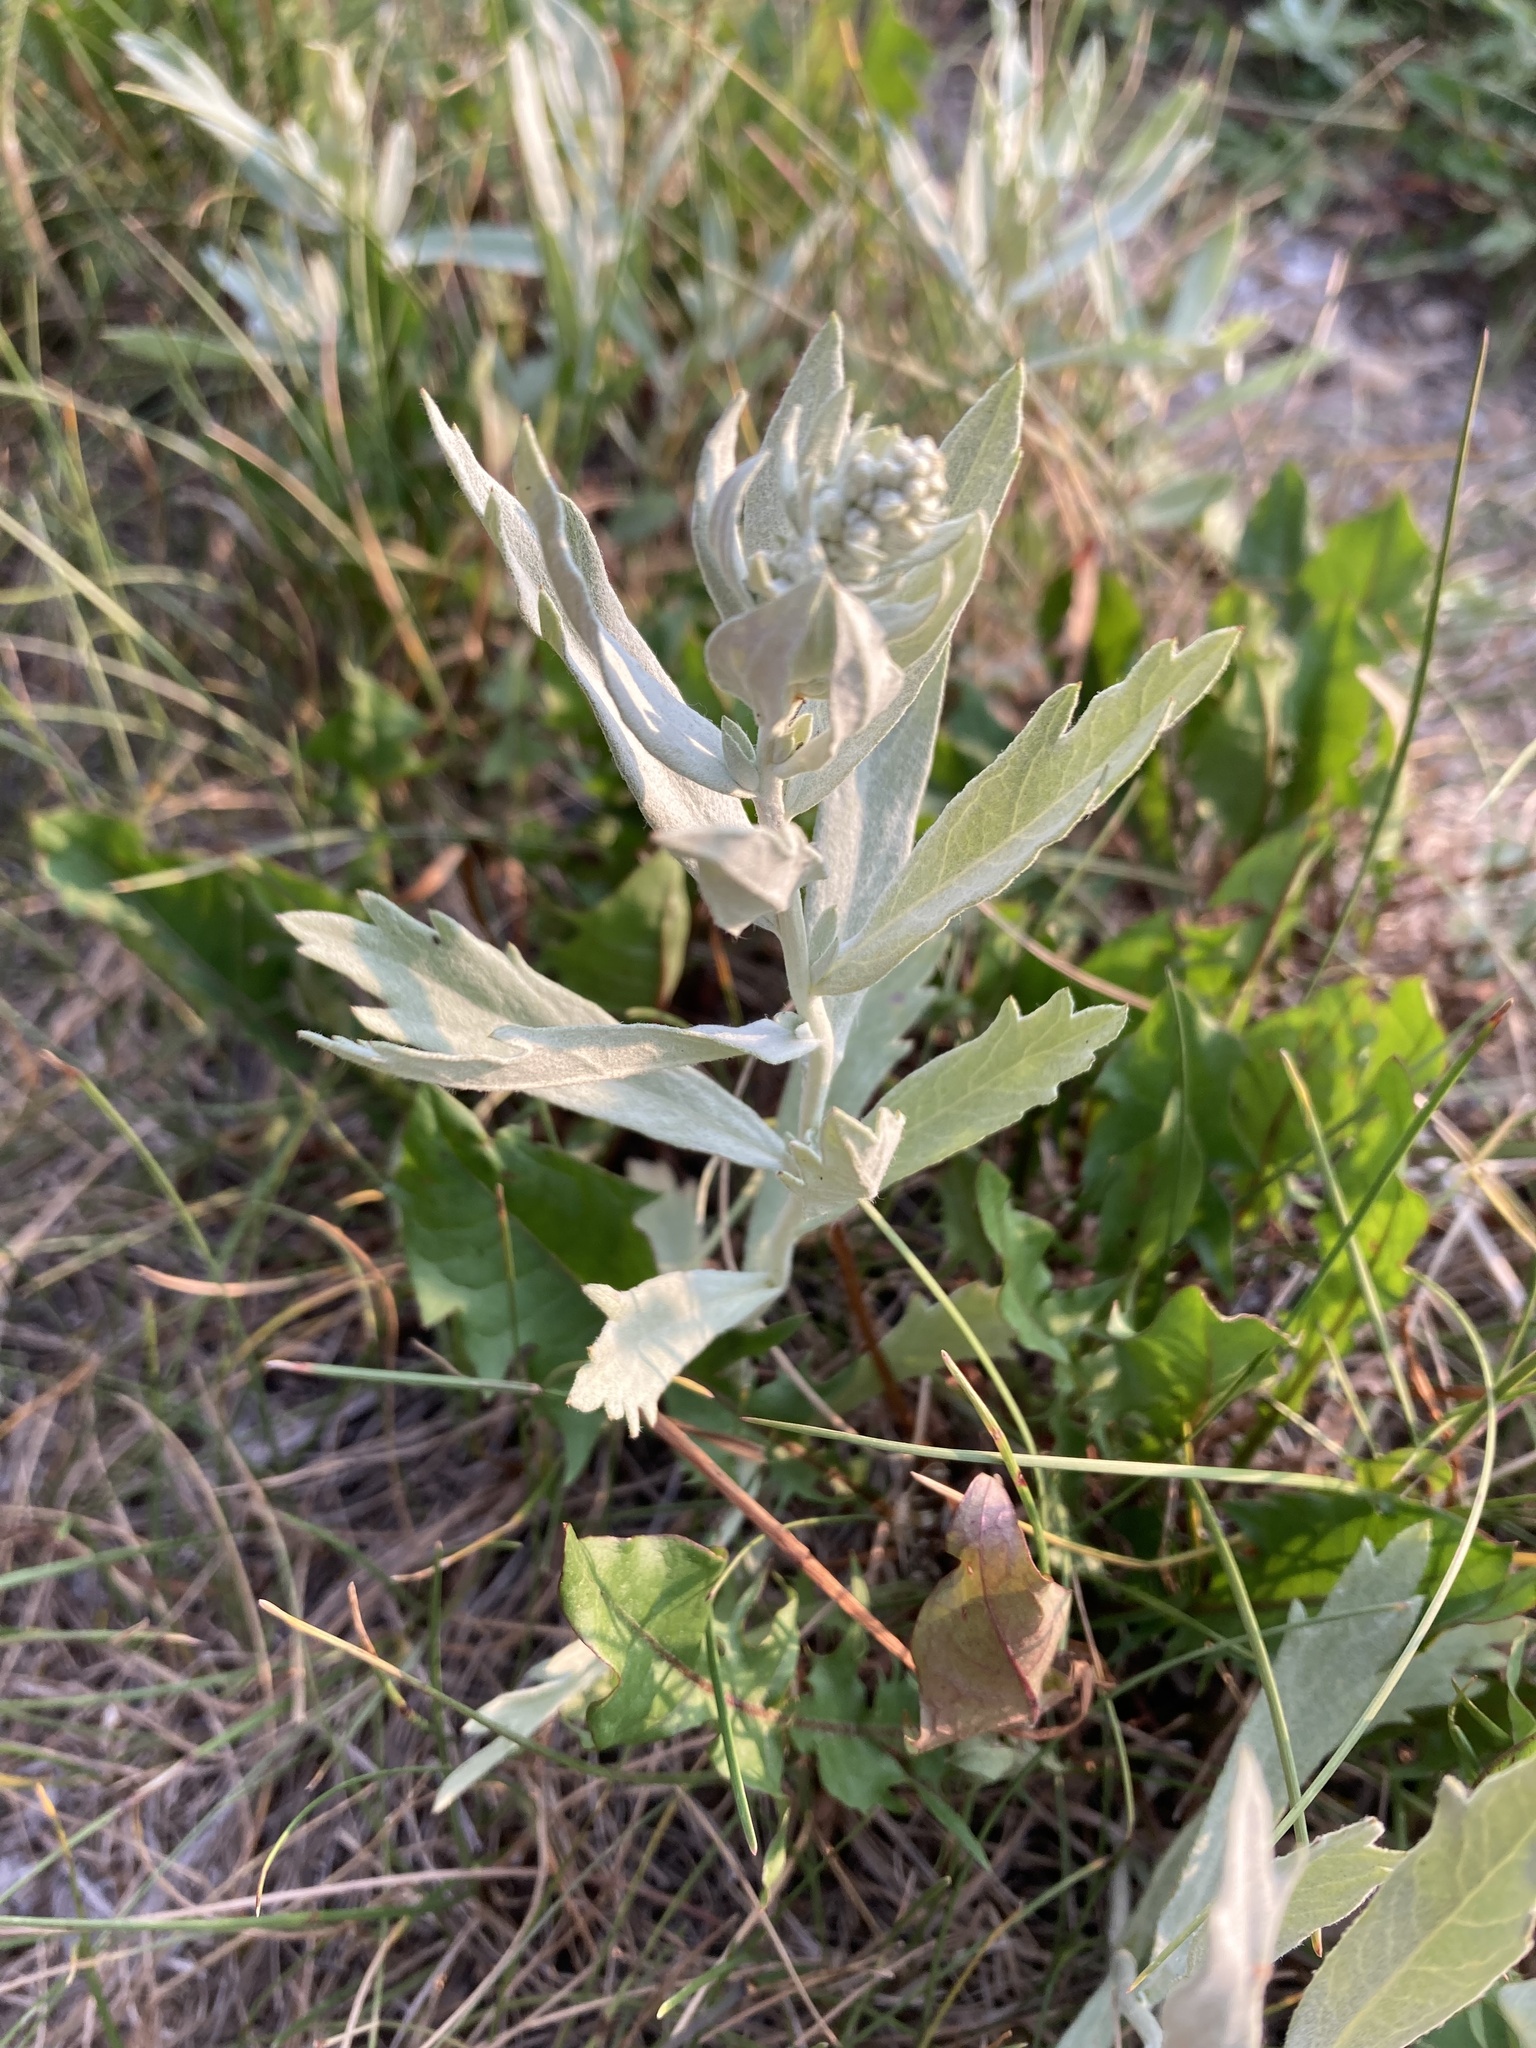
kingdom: Plantae
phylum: Tracheophyta
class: Magnoliopsida
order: Asterales
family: Asteraceae
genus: Artemisia
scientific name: Artemisia ludoviciana
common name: Western mugwort
